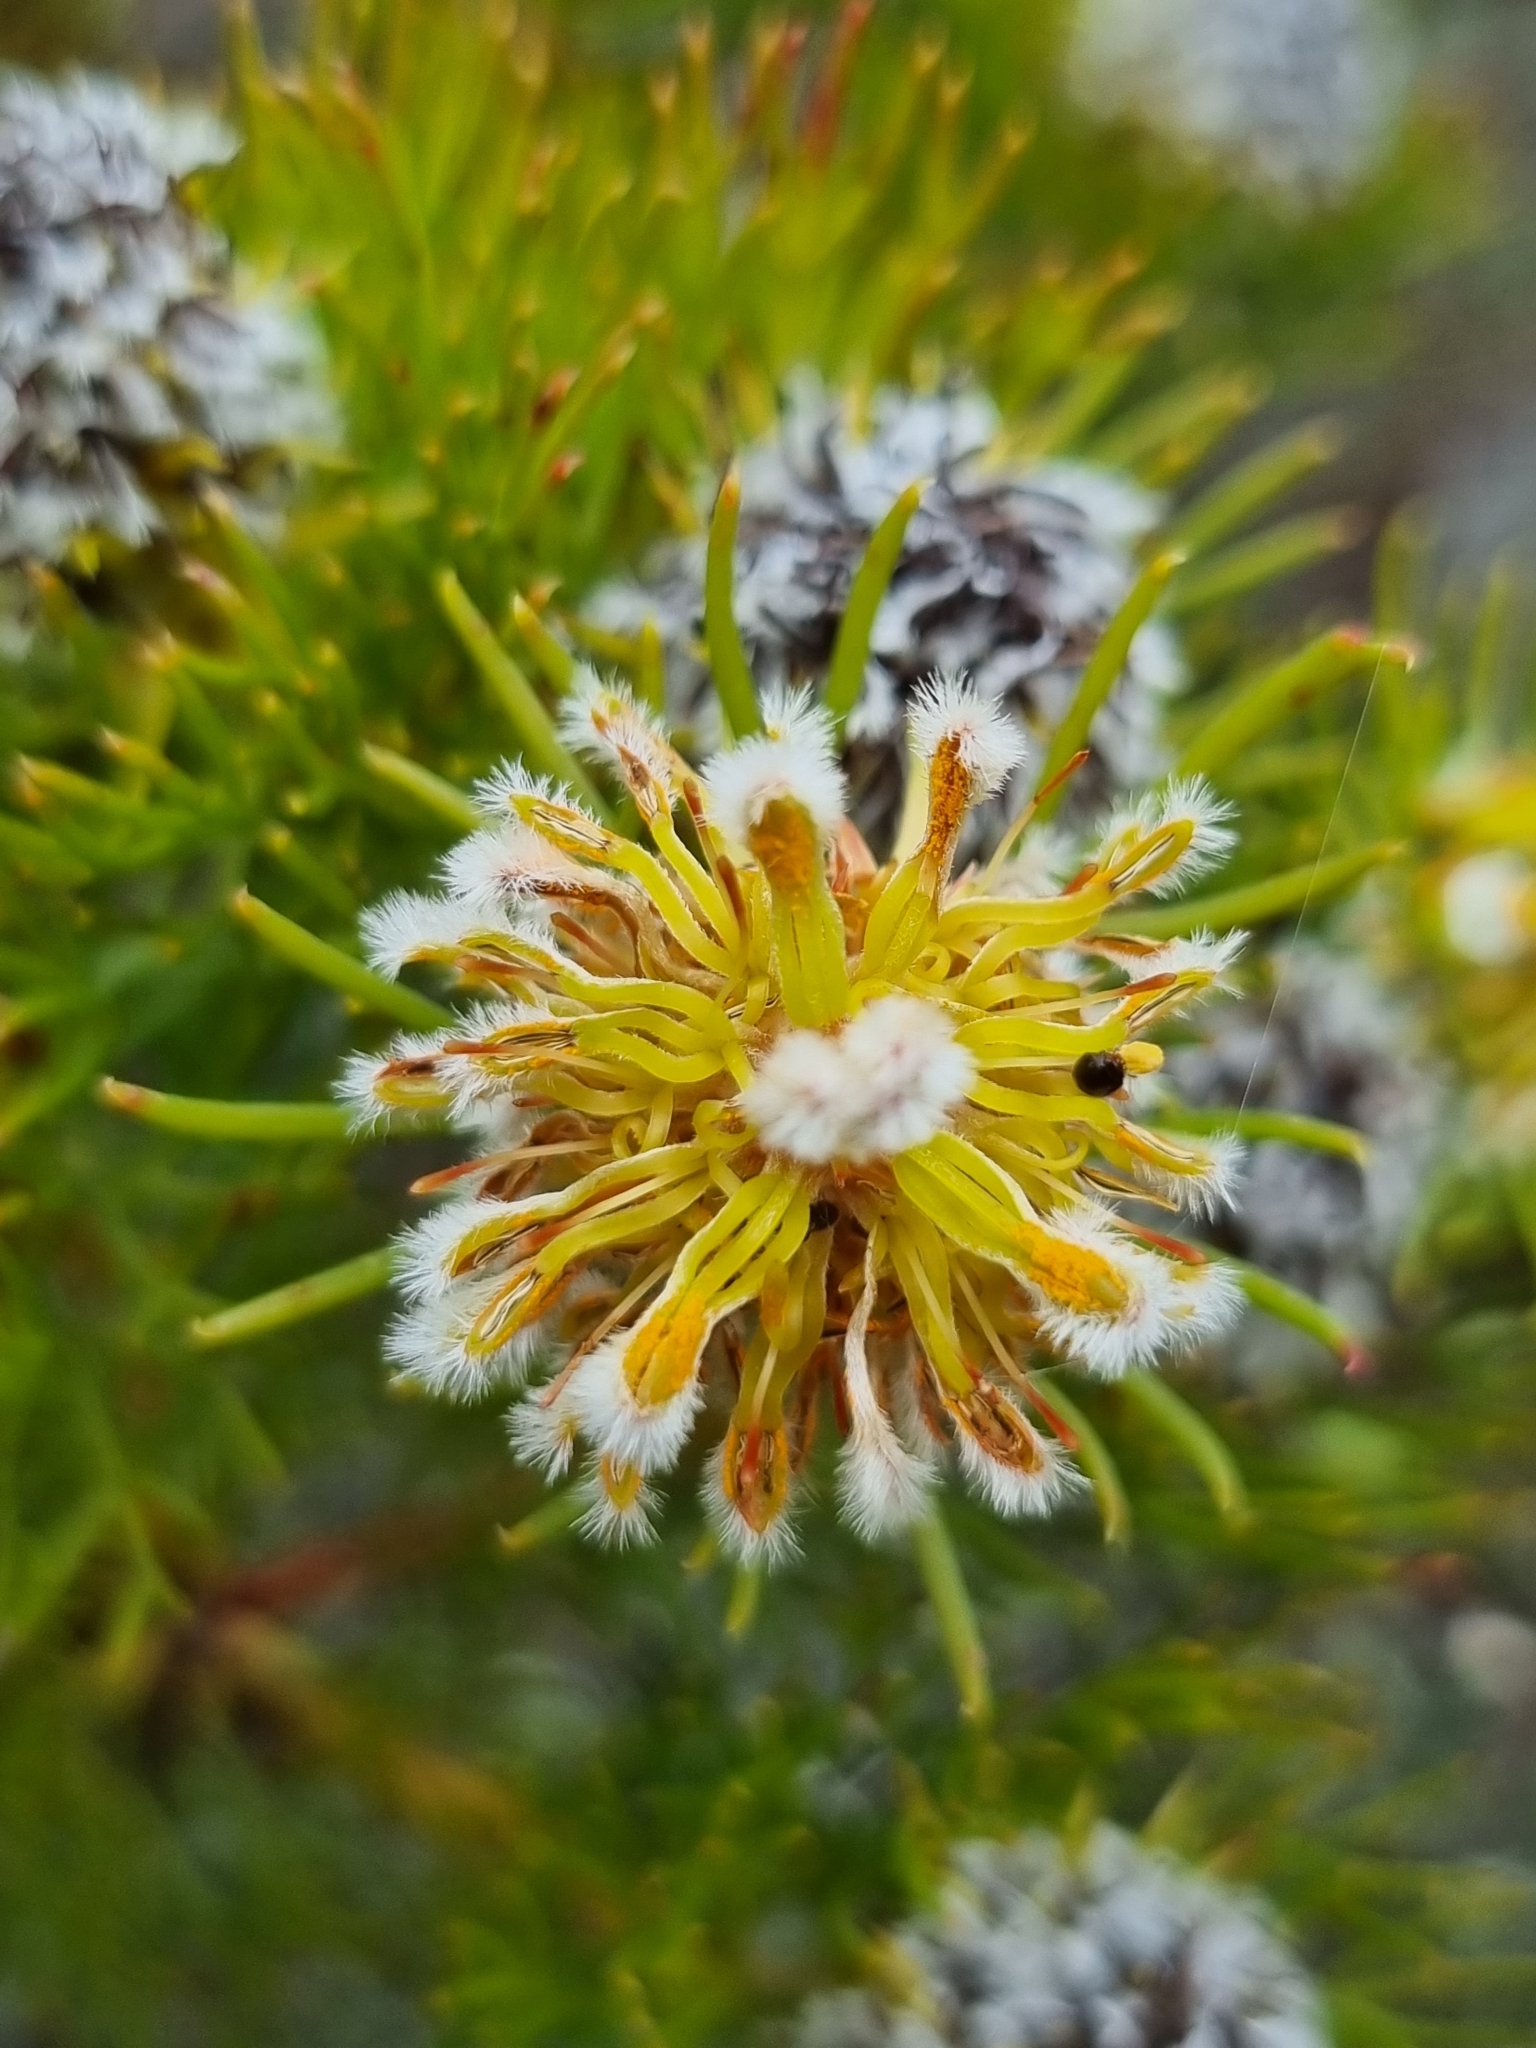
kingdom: Plantae
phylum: Tracheophyta
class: Magnoliopsida
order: Proteales
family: Proteaceae
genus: Serruria
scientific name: Serruria villosa
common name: Golden spiderhead
